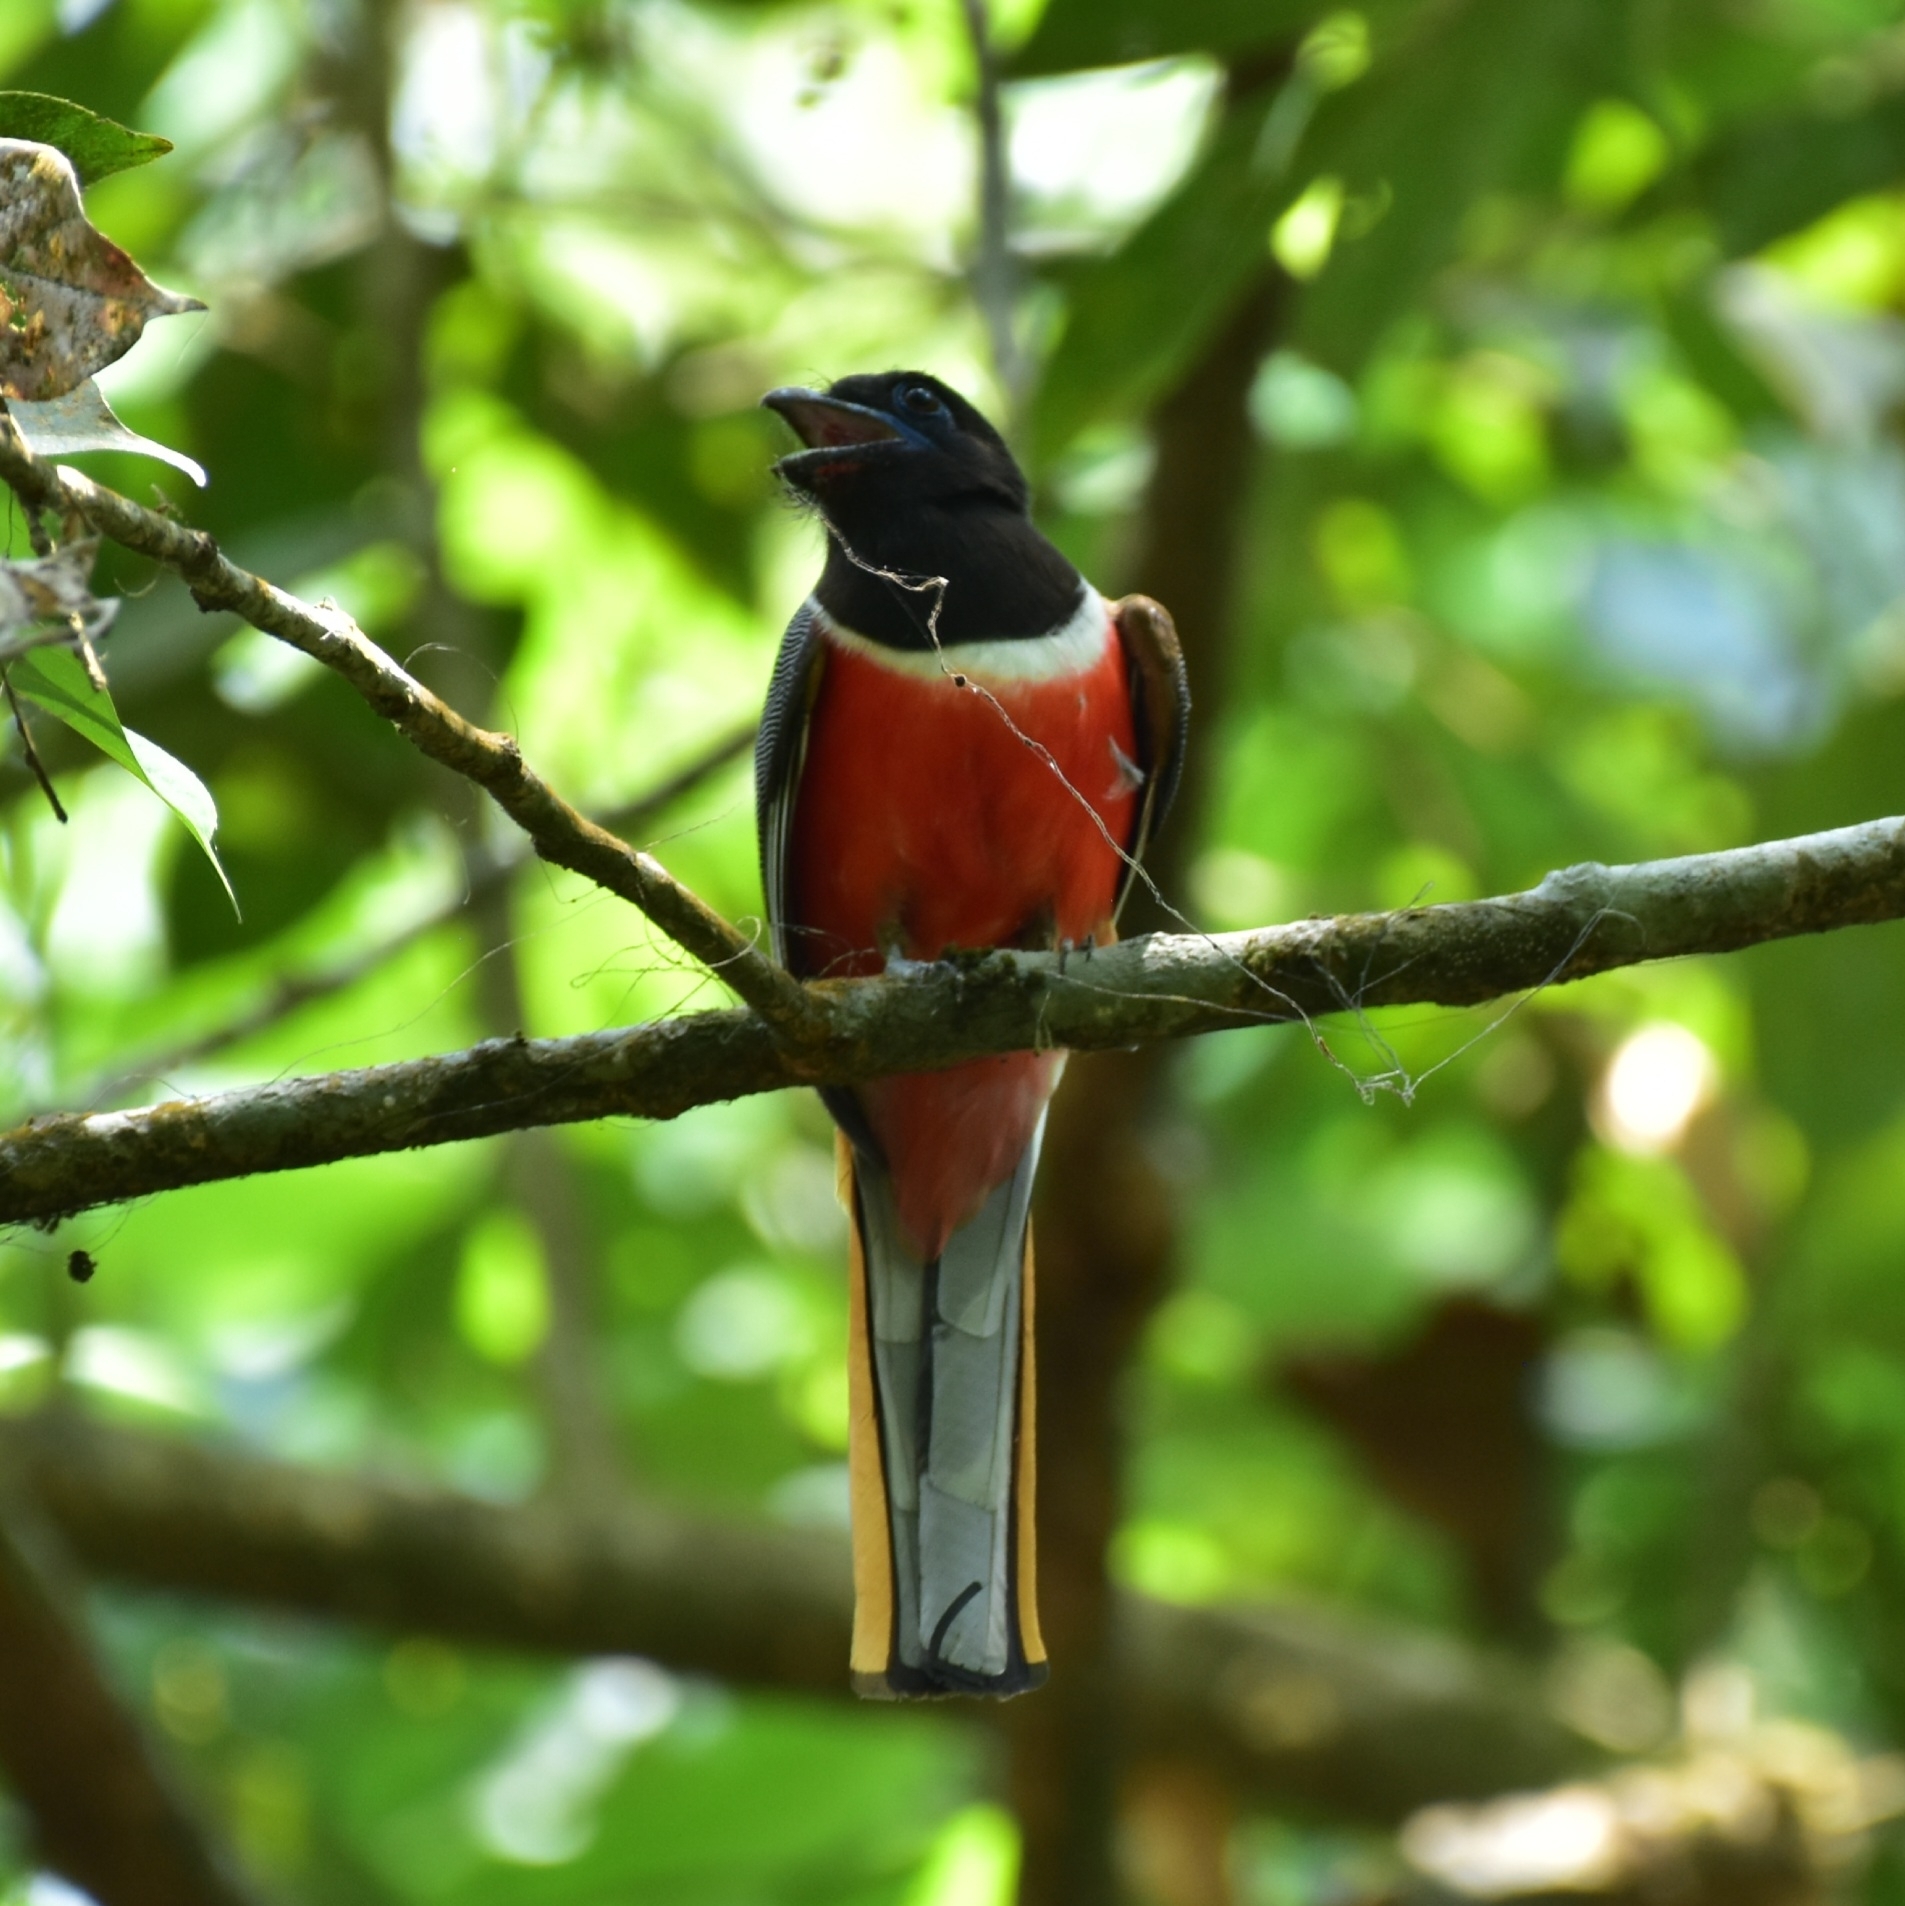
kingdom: Animalia
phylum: Chordata
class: Aves
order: Trogoniformes
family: Trogonidae
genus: Harpactes
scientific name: Harpactes fasciatus
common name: Malabar trogon
